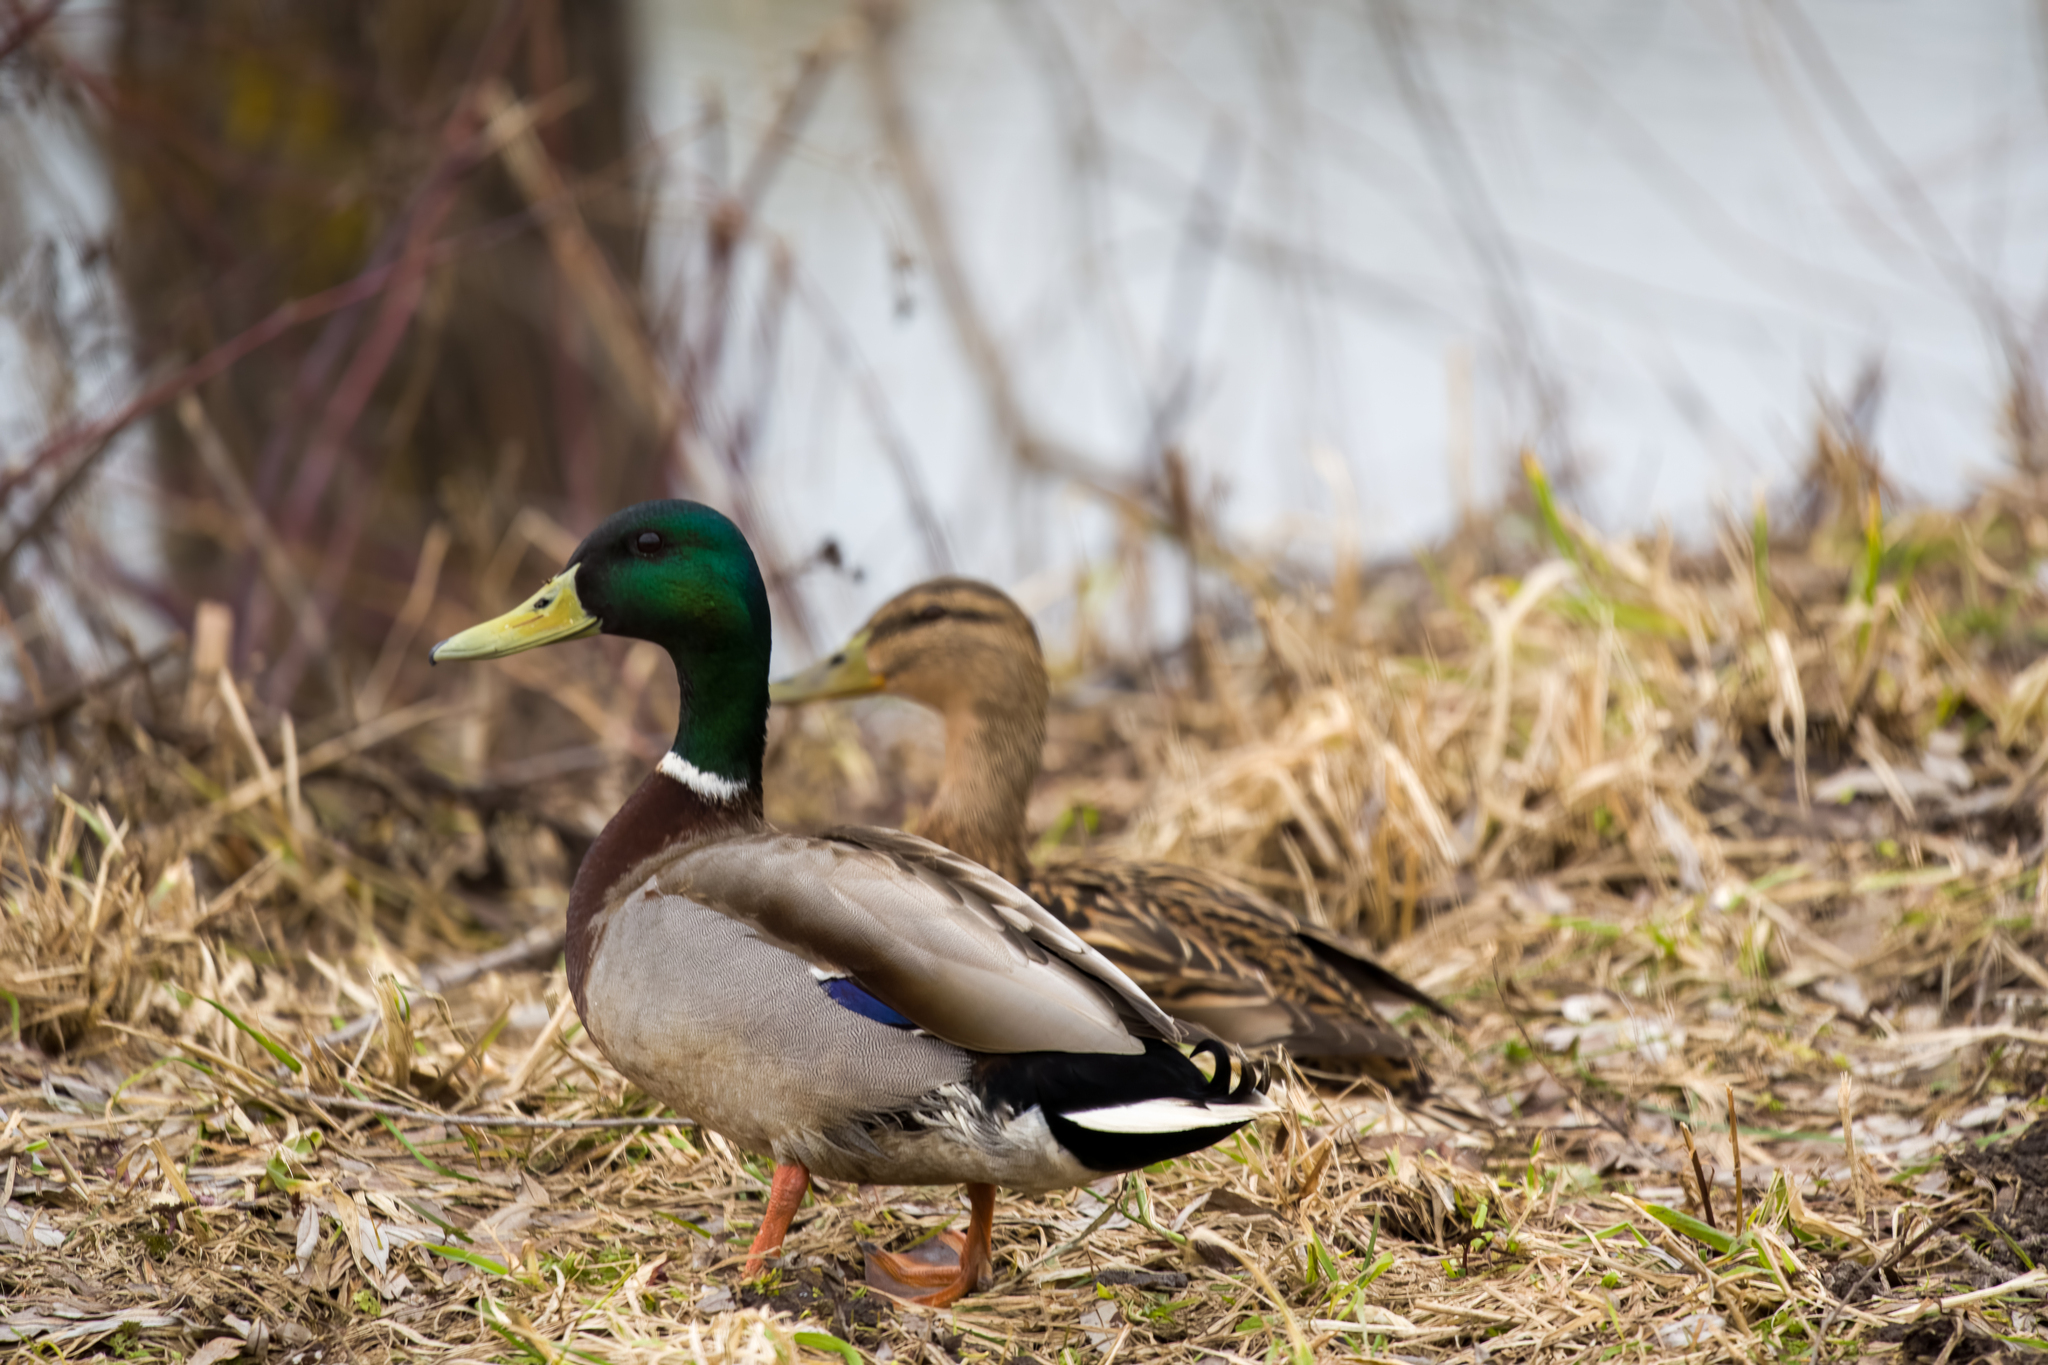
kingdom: Animalia
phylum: Chordata
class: Aves
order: Anseriformes
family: Anatidae
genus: Anas
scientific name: Anas platyrhynchos
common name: Mallard
